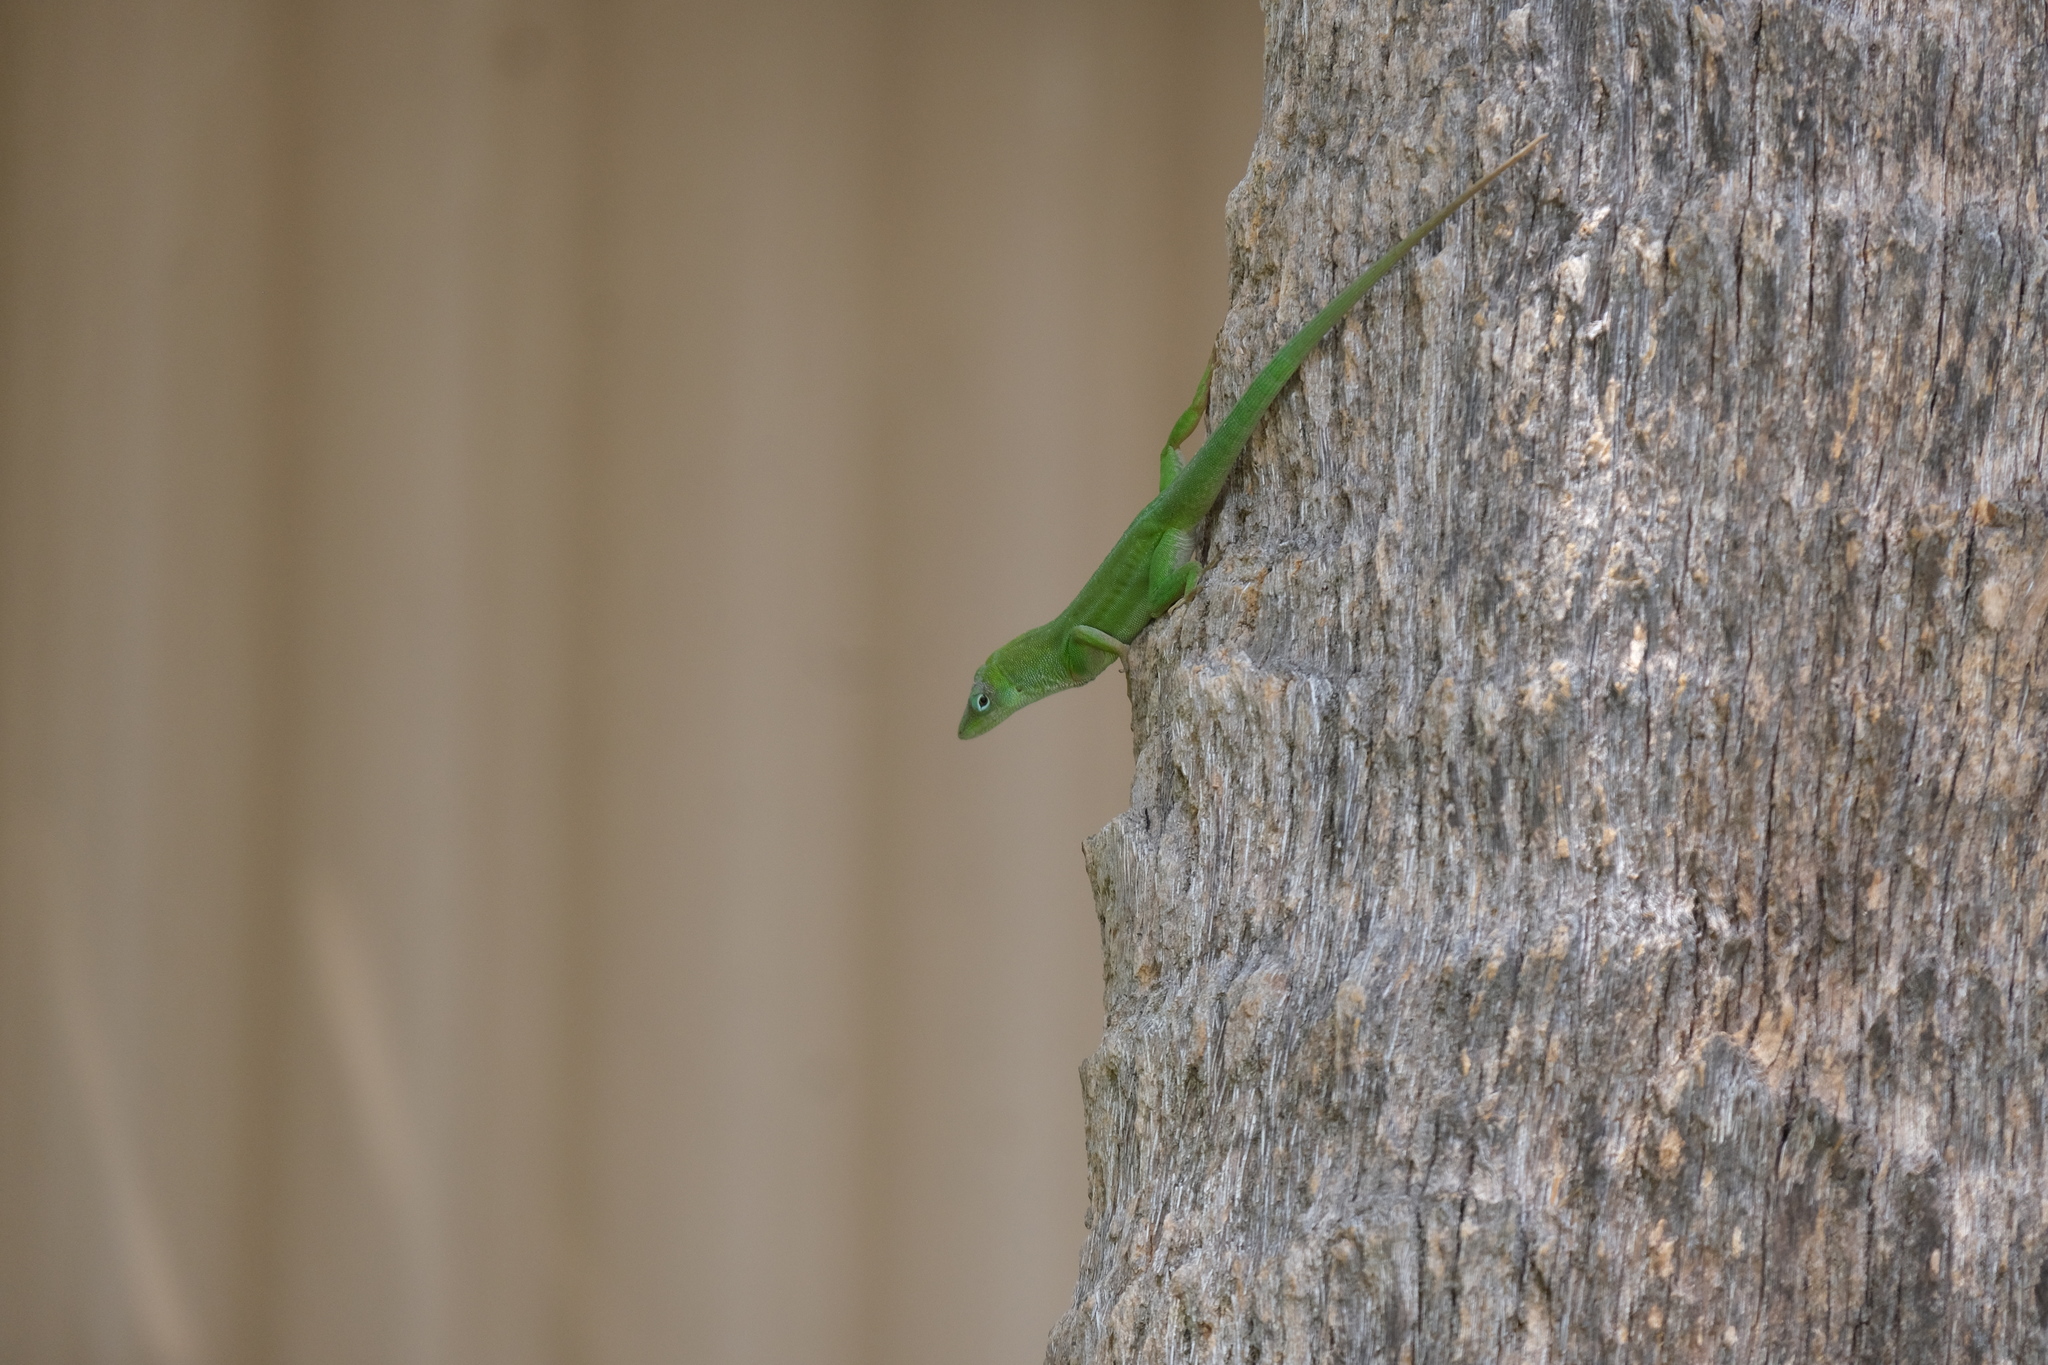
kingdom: Animalia
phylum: Chordata
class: Squamata
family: Dactyloidae
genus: Anolis
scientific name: Anolis chlorocyanus
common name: Hispaniolan green anole
